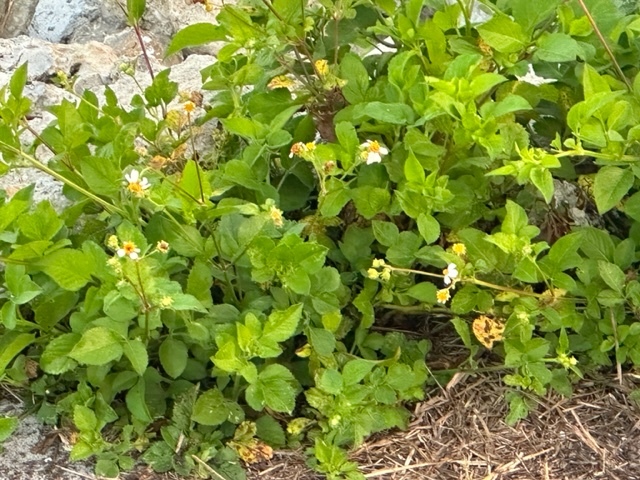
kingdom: Plantae
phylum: Tracheophyta
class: Magnoliopsida
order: Asterales
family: Asteraceae
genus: Bidens
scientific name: Bidens alba
